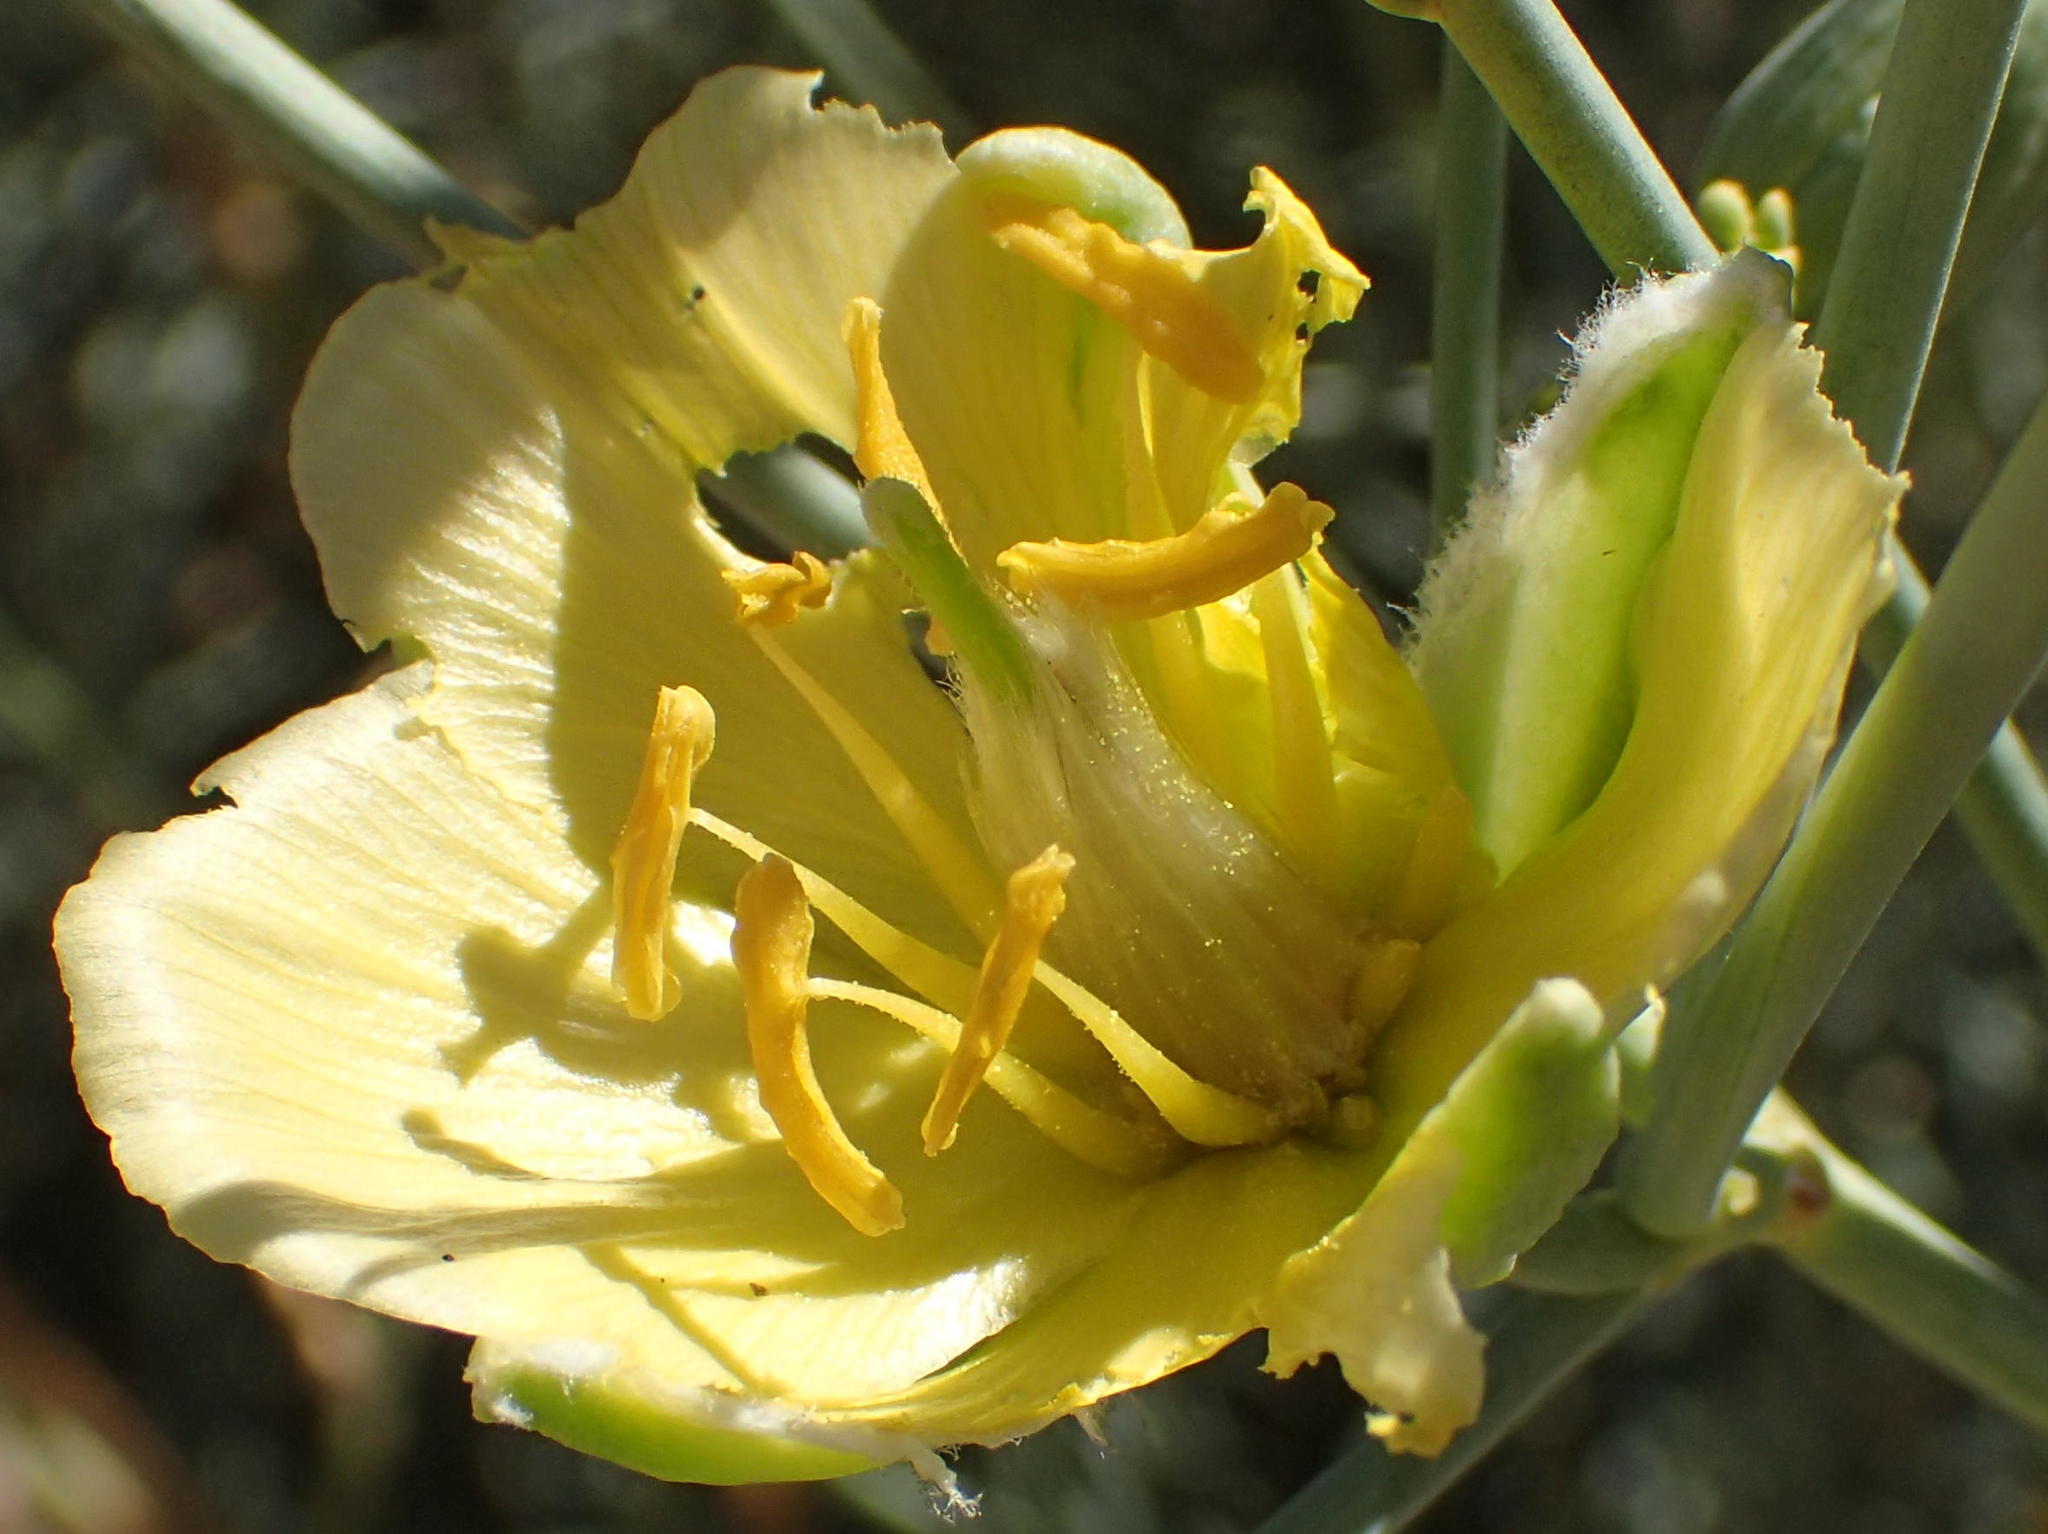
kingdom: Plantae
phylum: Tracheophyta
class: Magnoliopsida
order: Zygophyllales
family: Zygophyllaceae
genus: Sisyndite
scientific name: Sisyndite spartea
